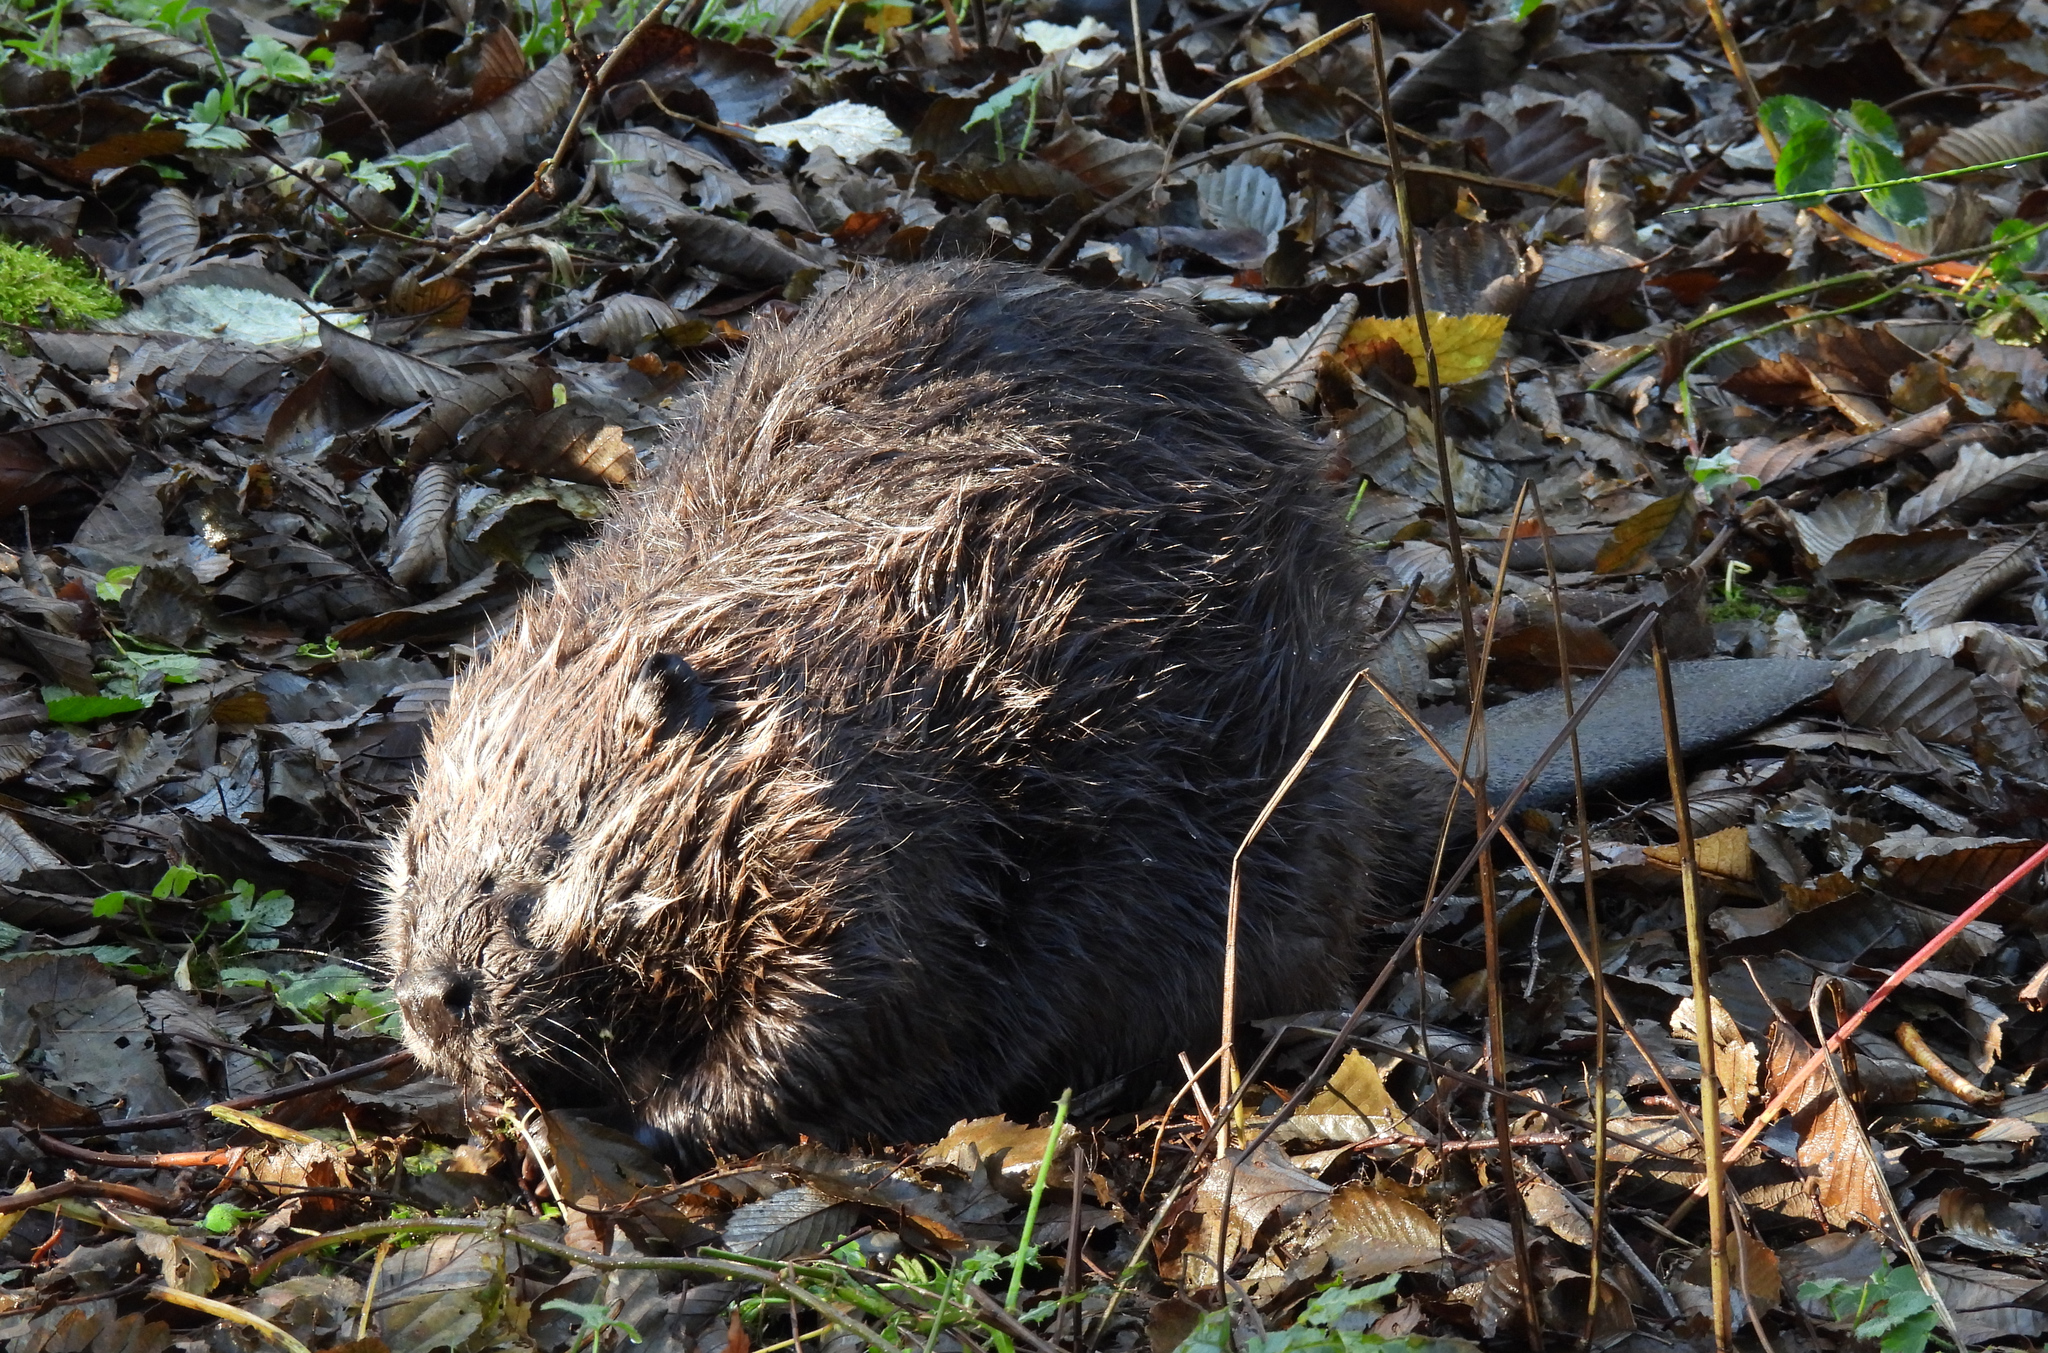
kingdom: Animalia
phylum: Chordata
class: Mammalia
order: Rodentia
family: Castoridae
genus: Castor
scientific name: Castor canadensis
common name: American beaver
